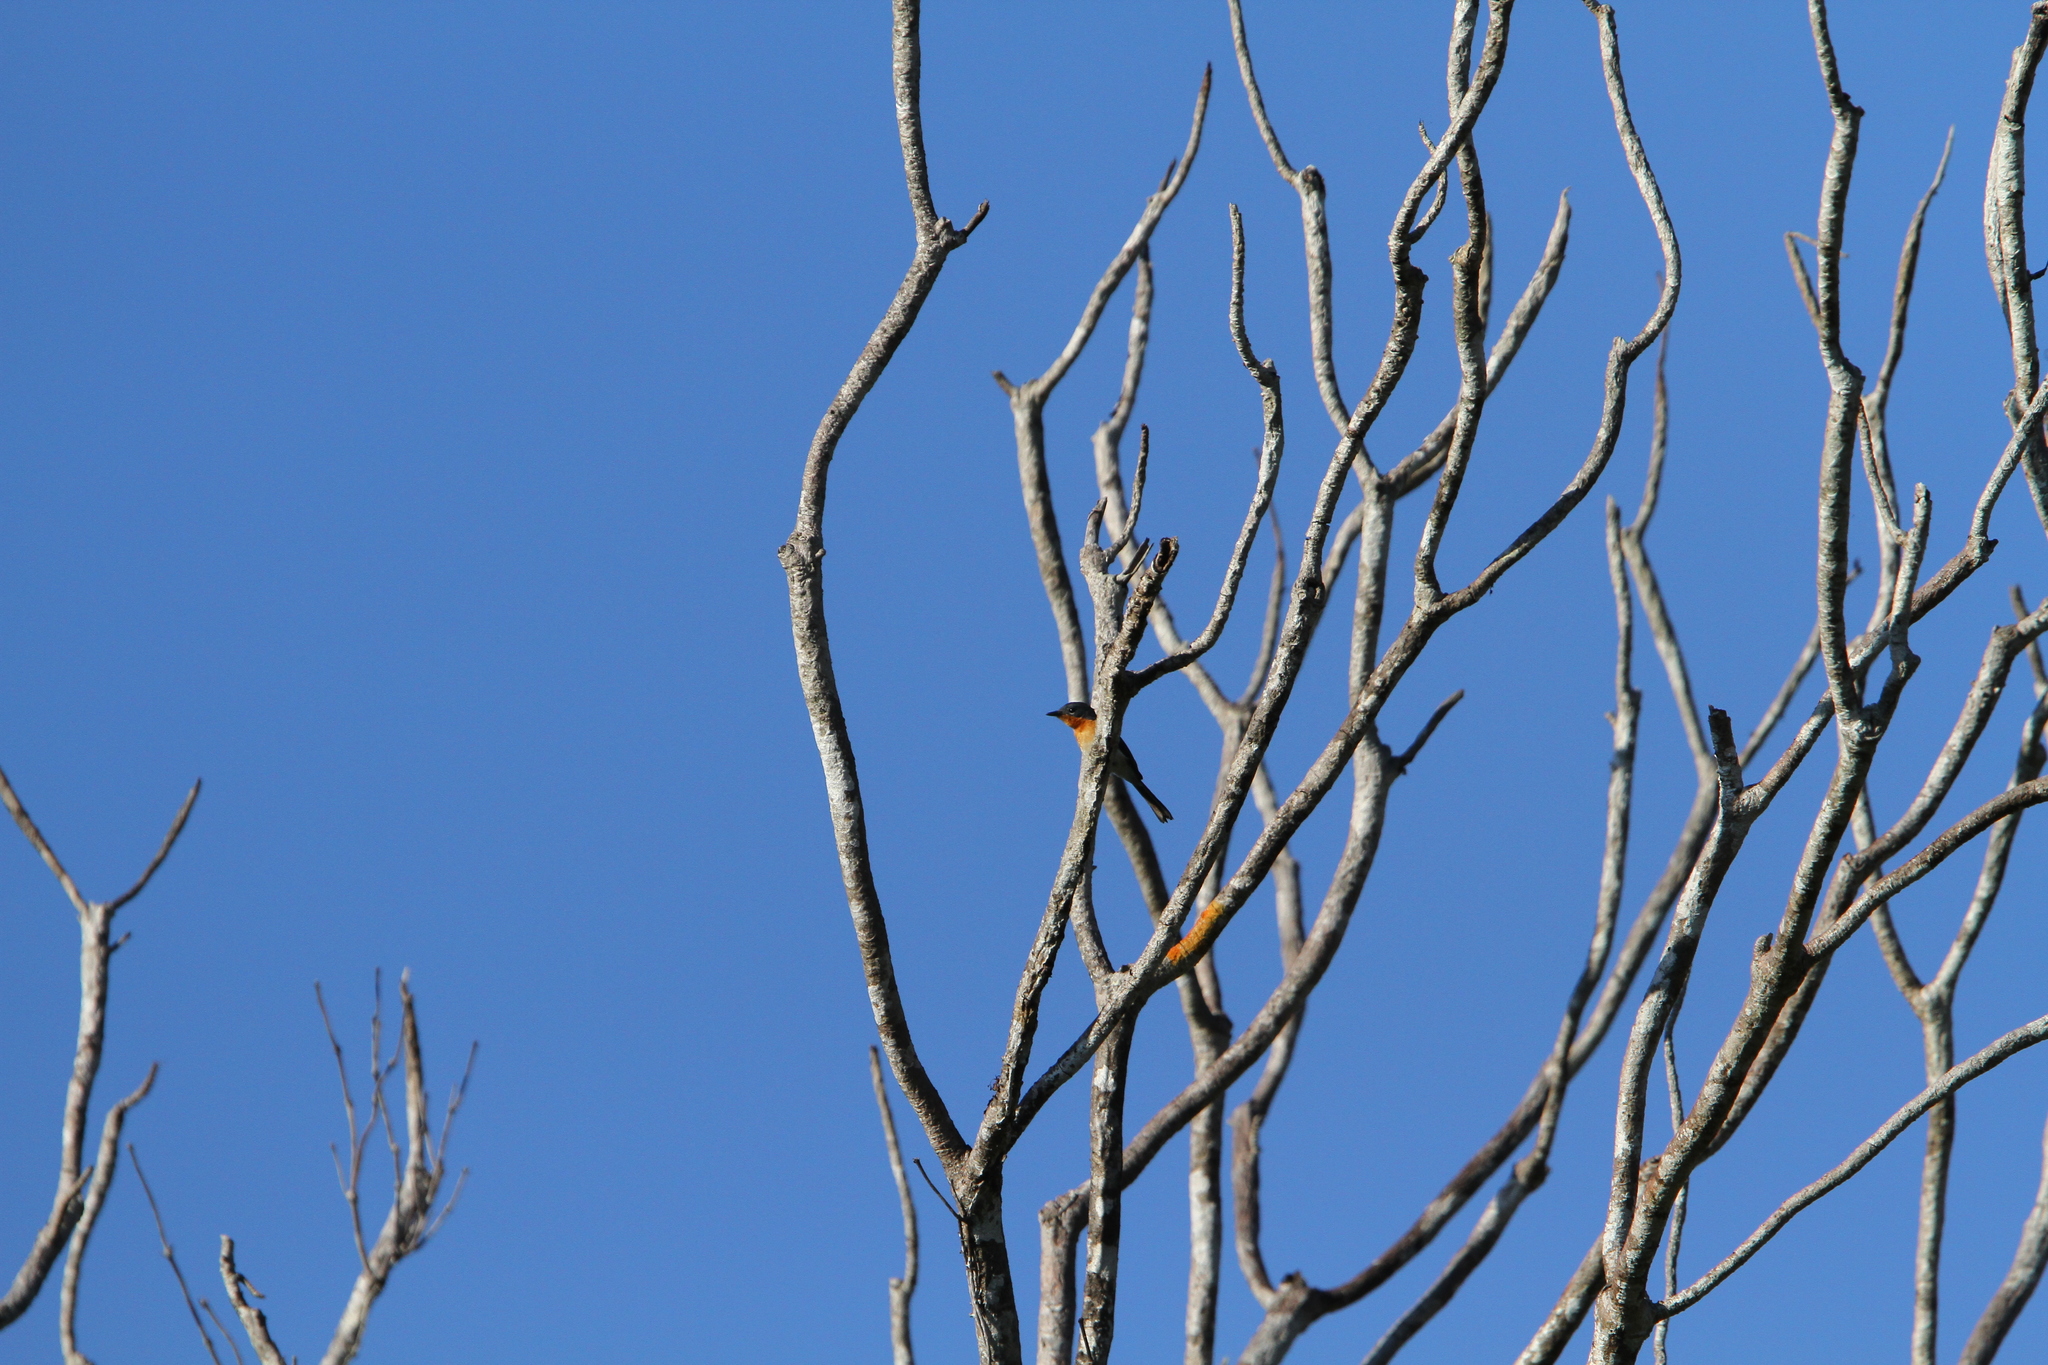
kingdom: Animalia
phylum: Chordata
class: Aves
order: Passeriformes
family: Monarchidae
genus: Myiagra
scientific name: Myiagra ruficollis
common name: Broad-billed flycatcher
